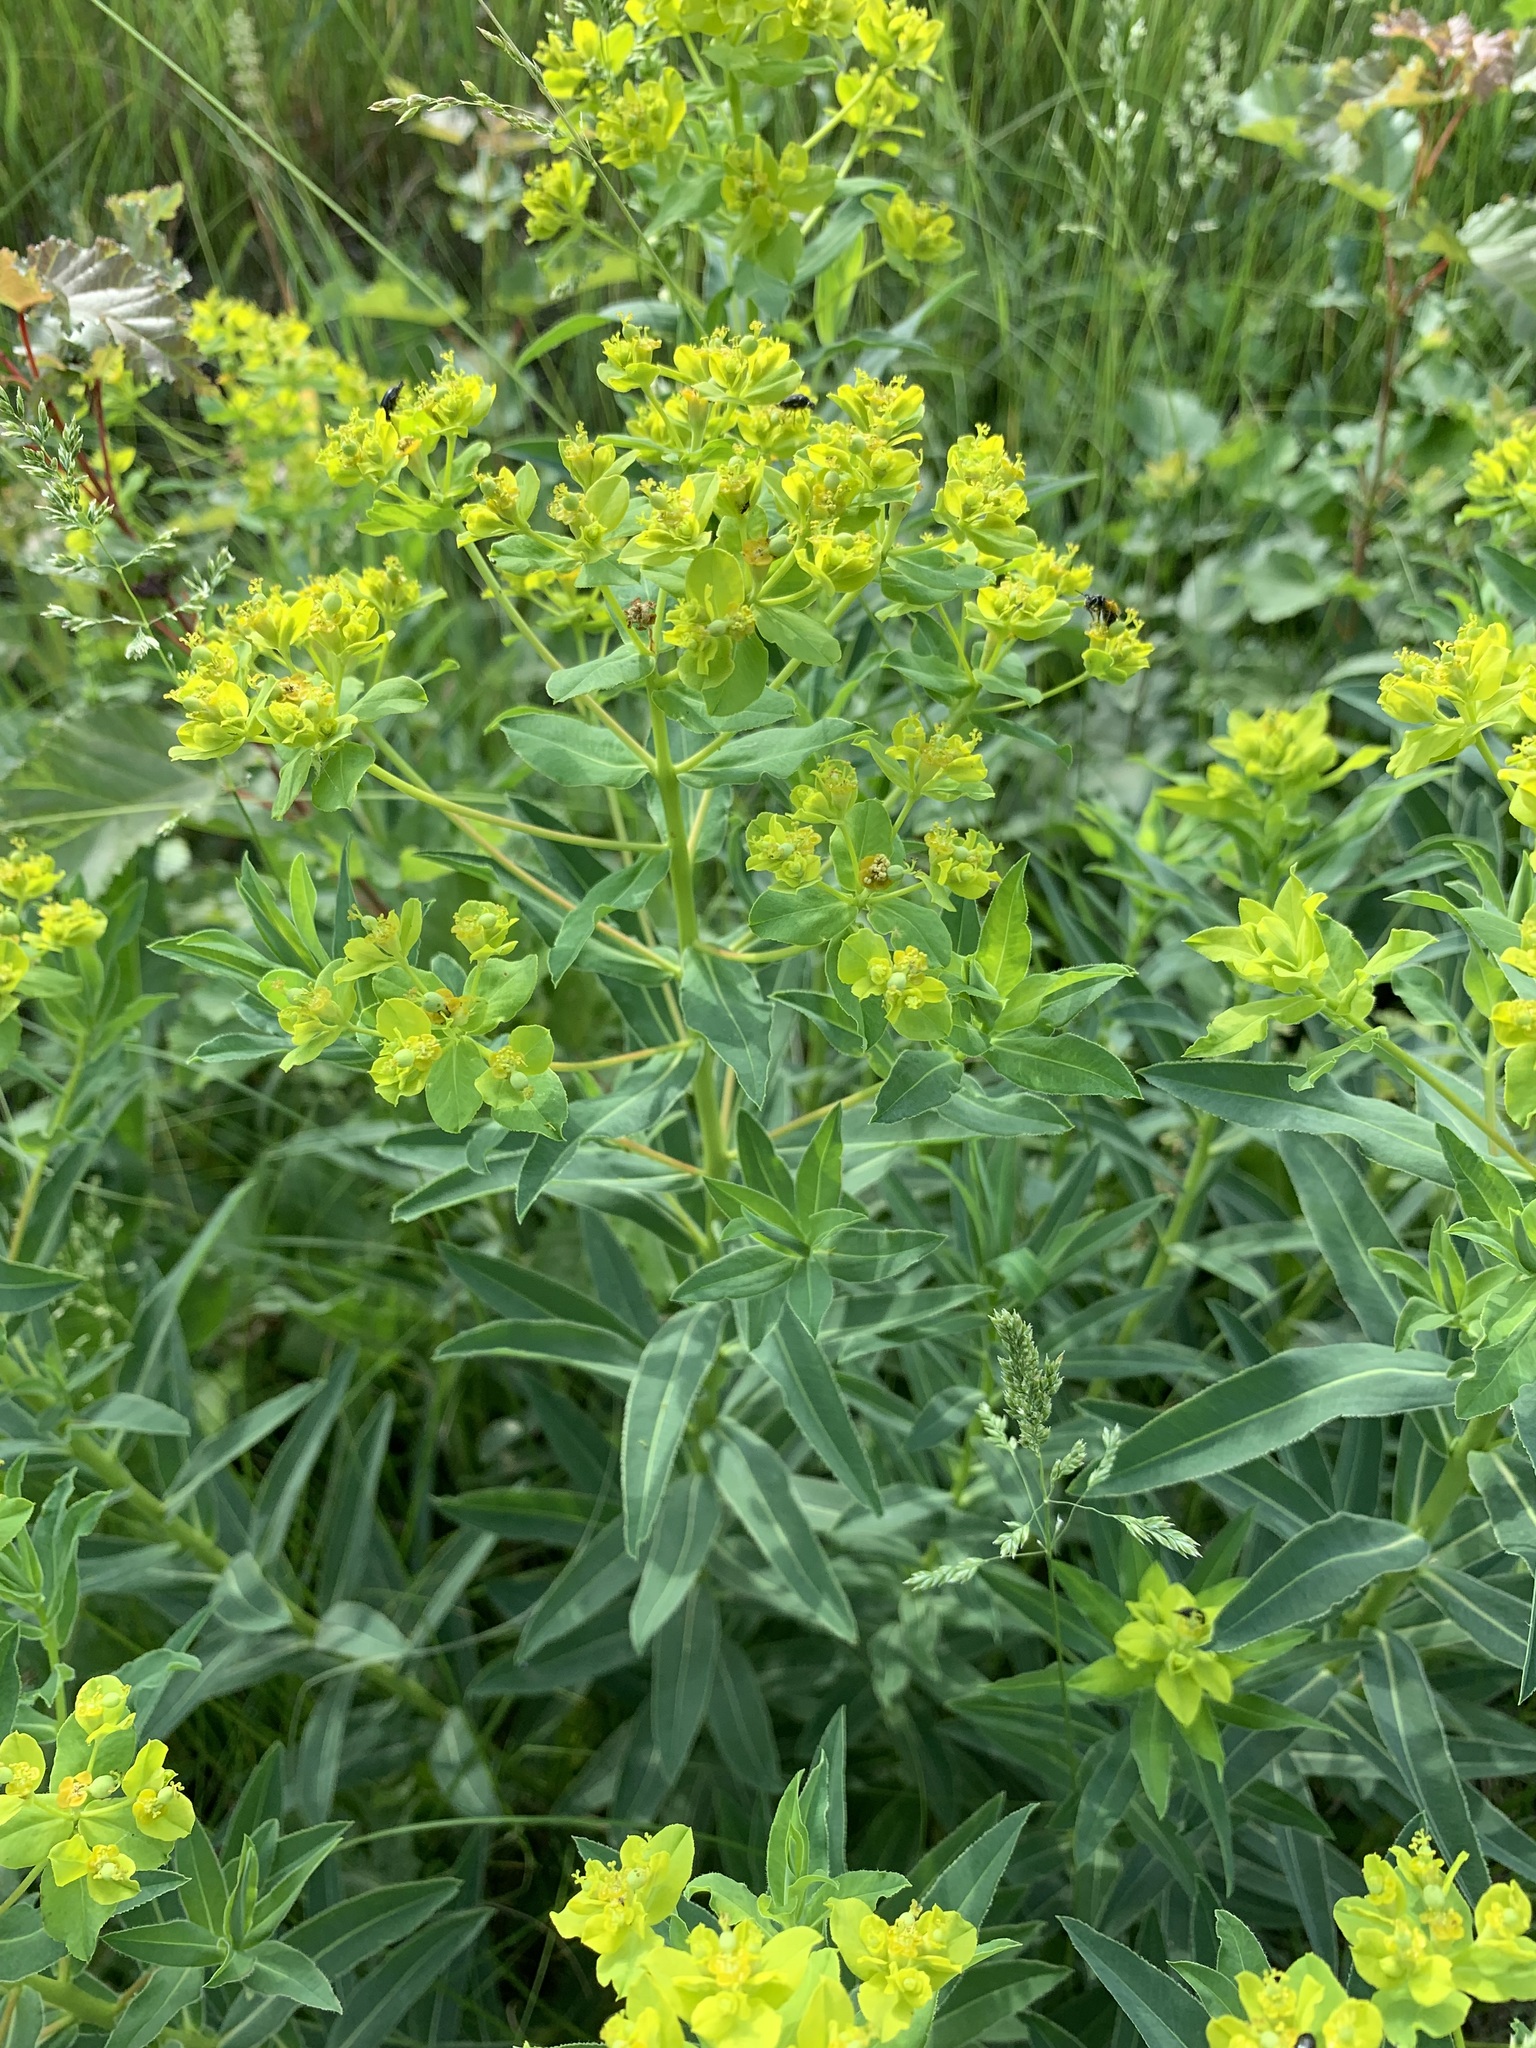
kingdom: Plantae
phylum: Tracheophyta
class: Magnoliopsida
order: Malpighiales
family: Euphorbiaceae
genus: Euphorbia
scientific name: Euphorbia semivillosa
